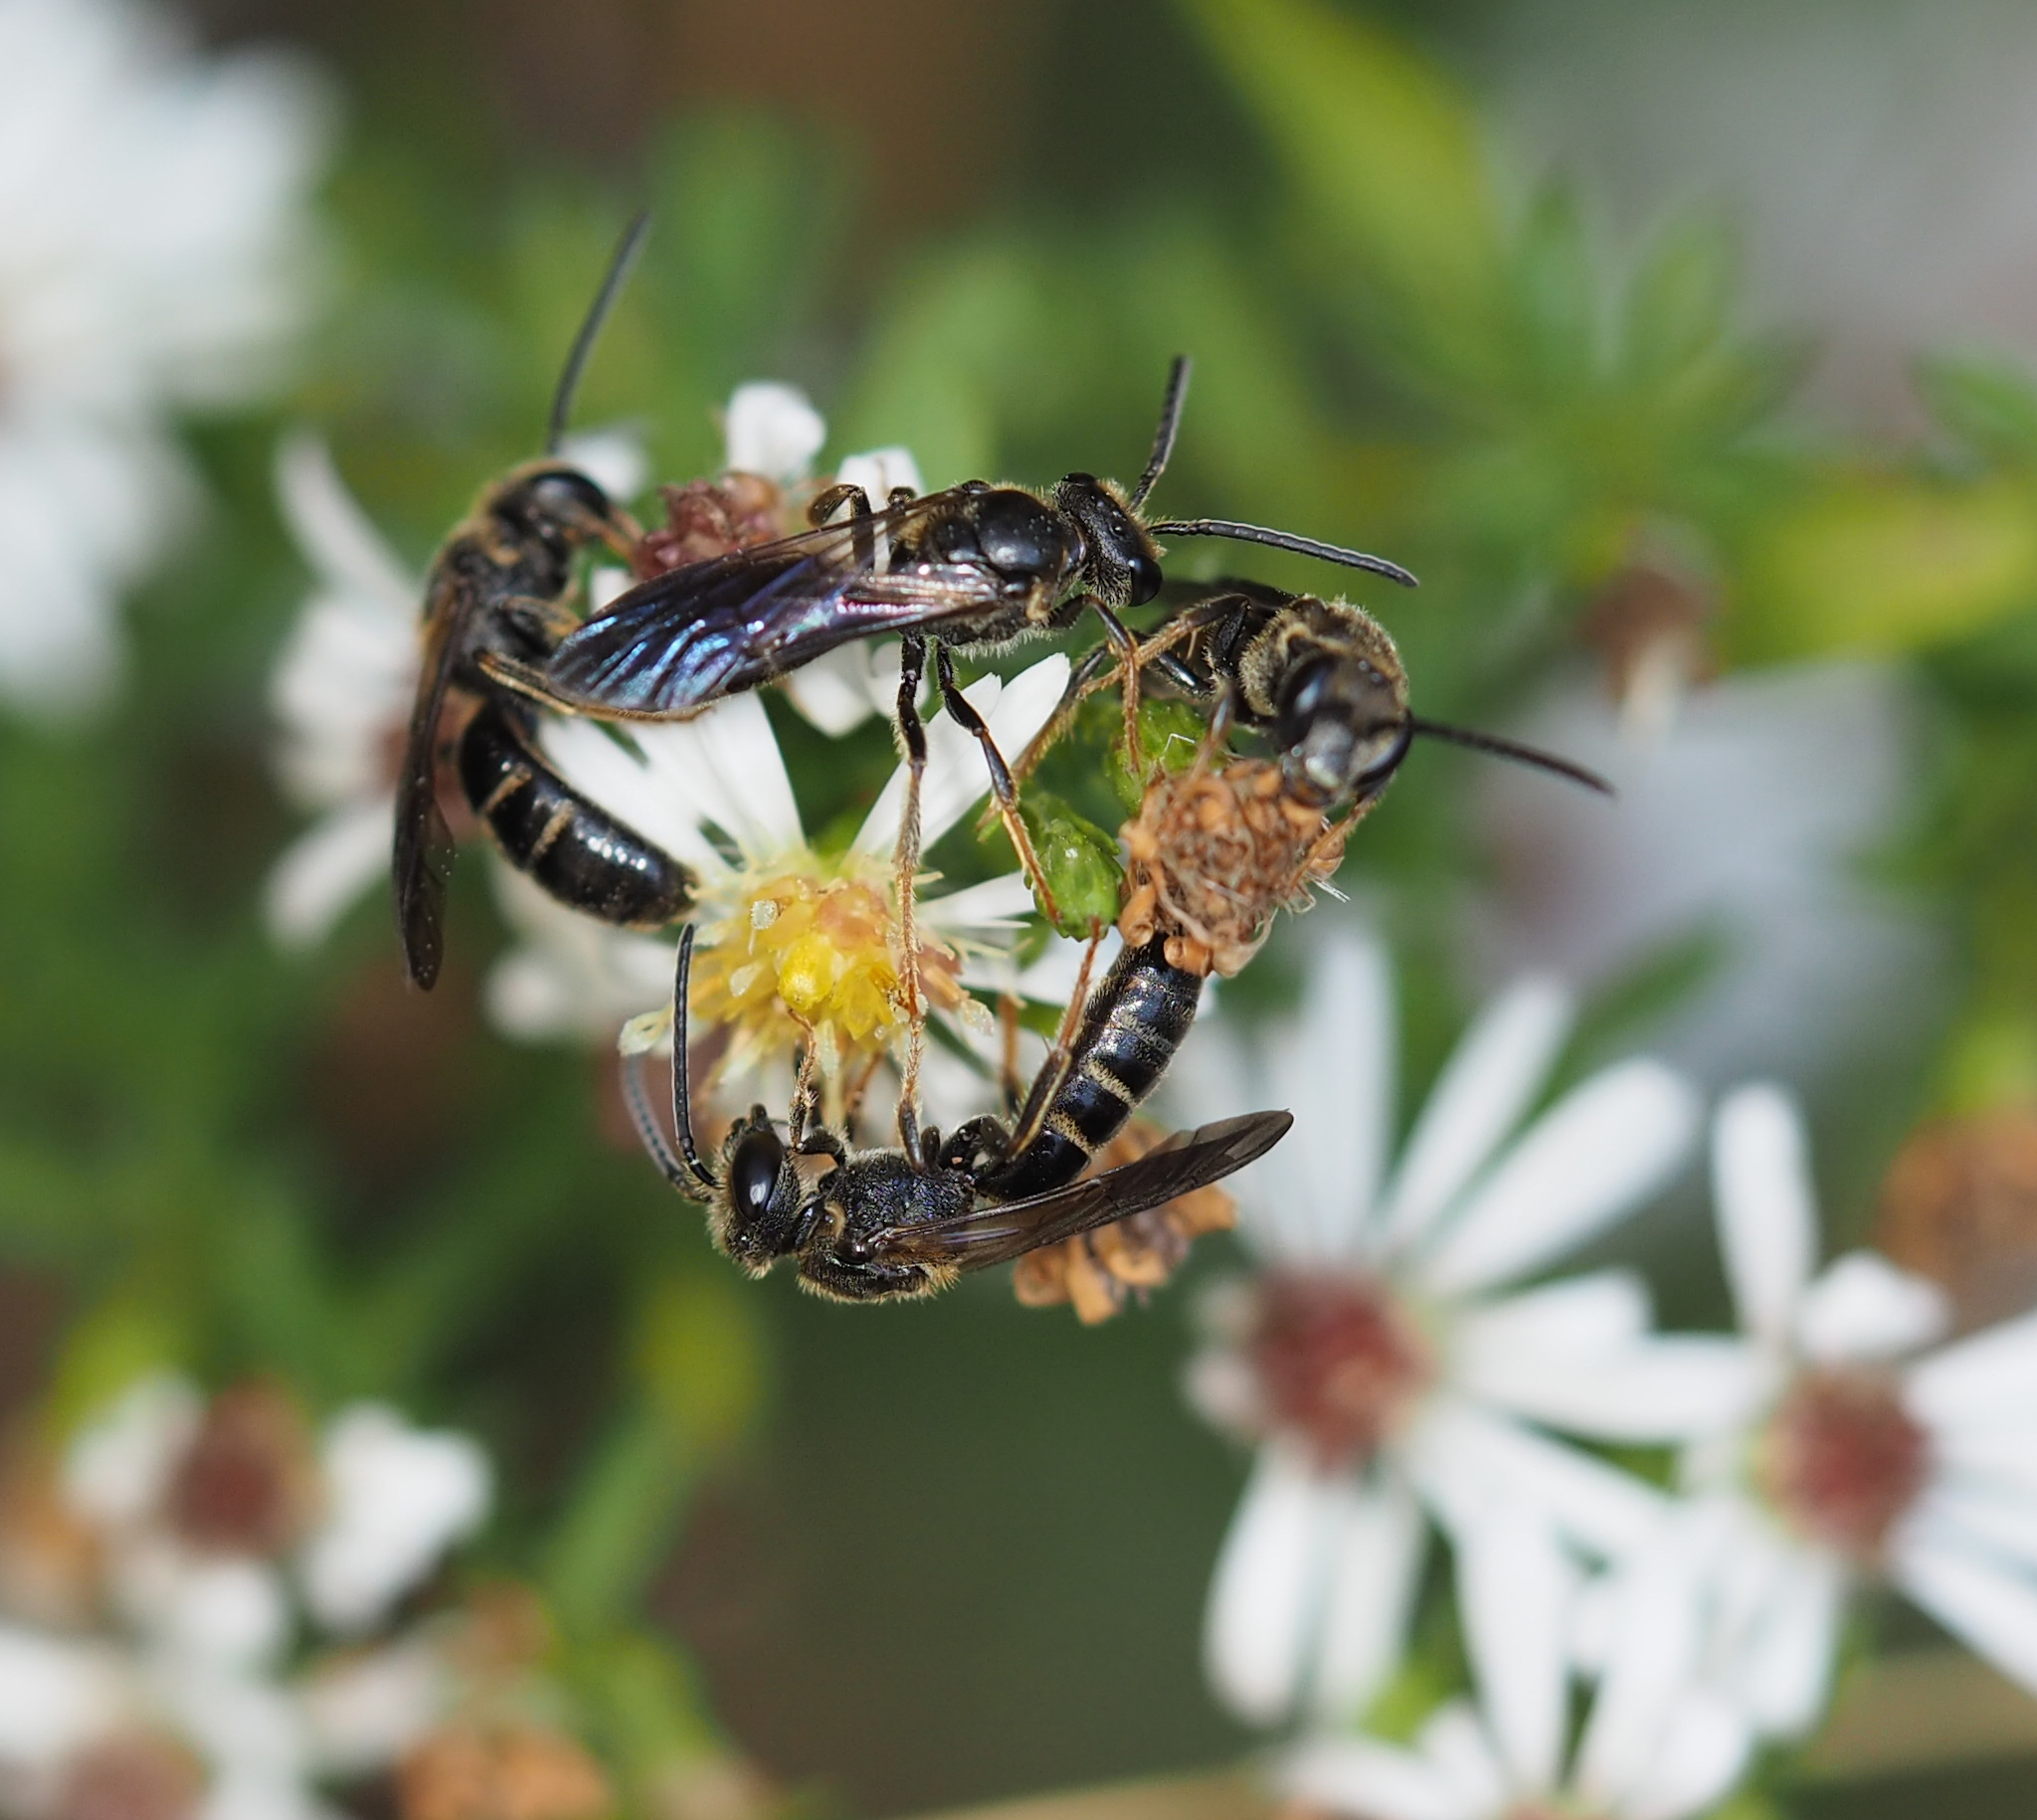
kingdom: Animalia
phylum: Arthropoda
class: Insecta
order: Hymenoptera
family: Halictidae
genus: Lasioglossum
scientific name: Lasioglossum fuscipenne
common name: Brown-winged sweat bee
